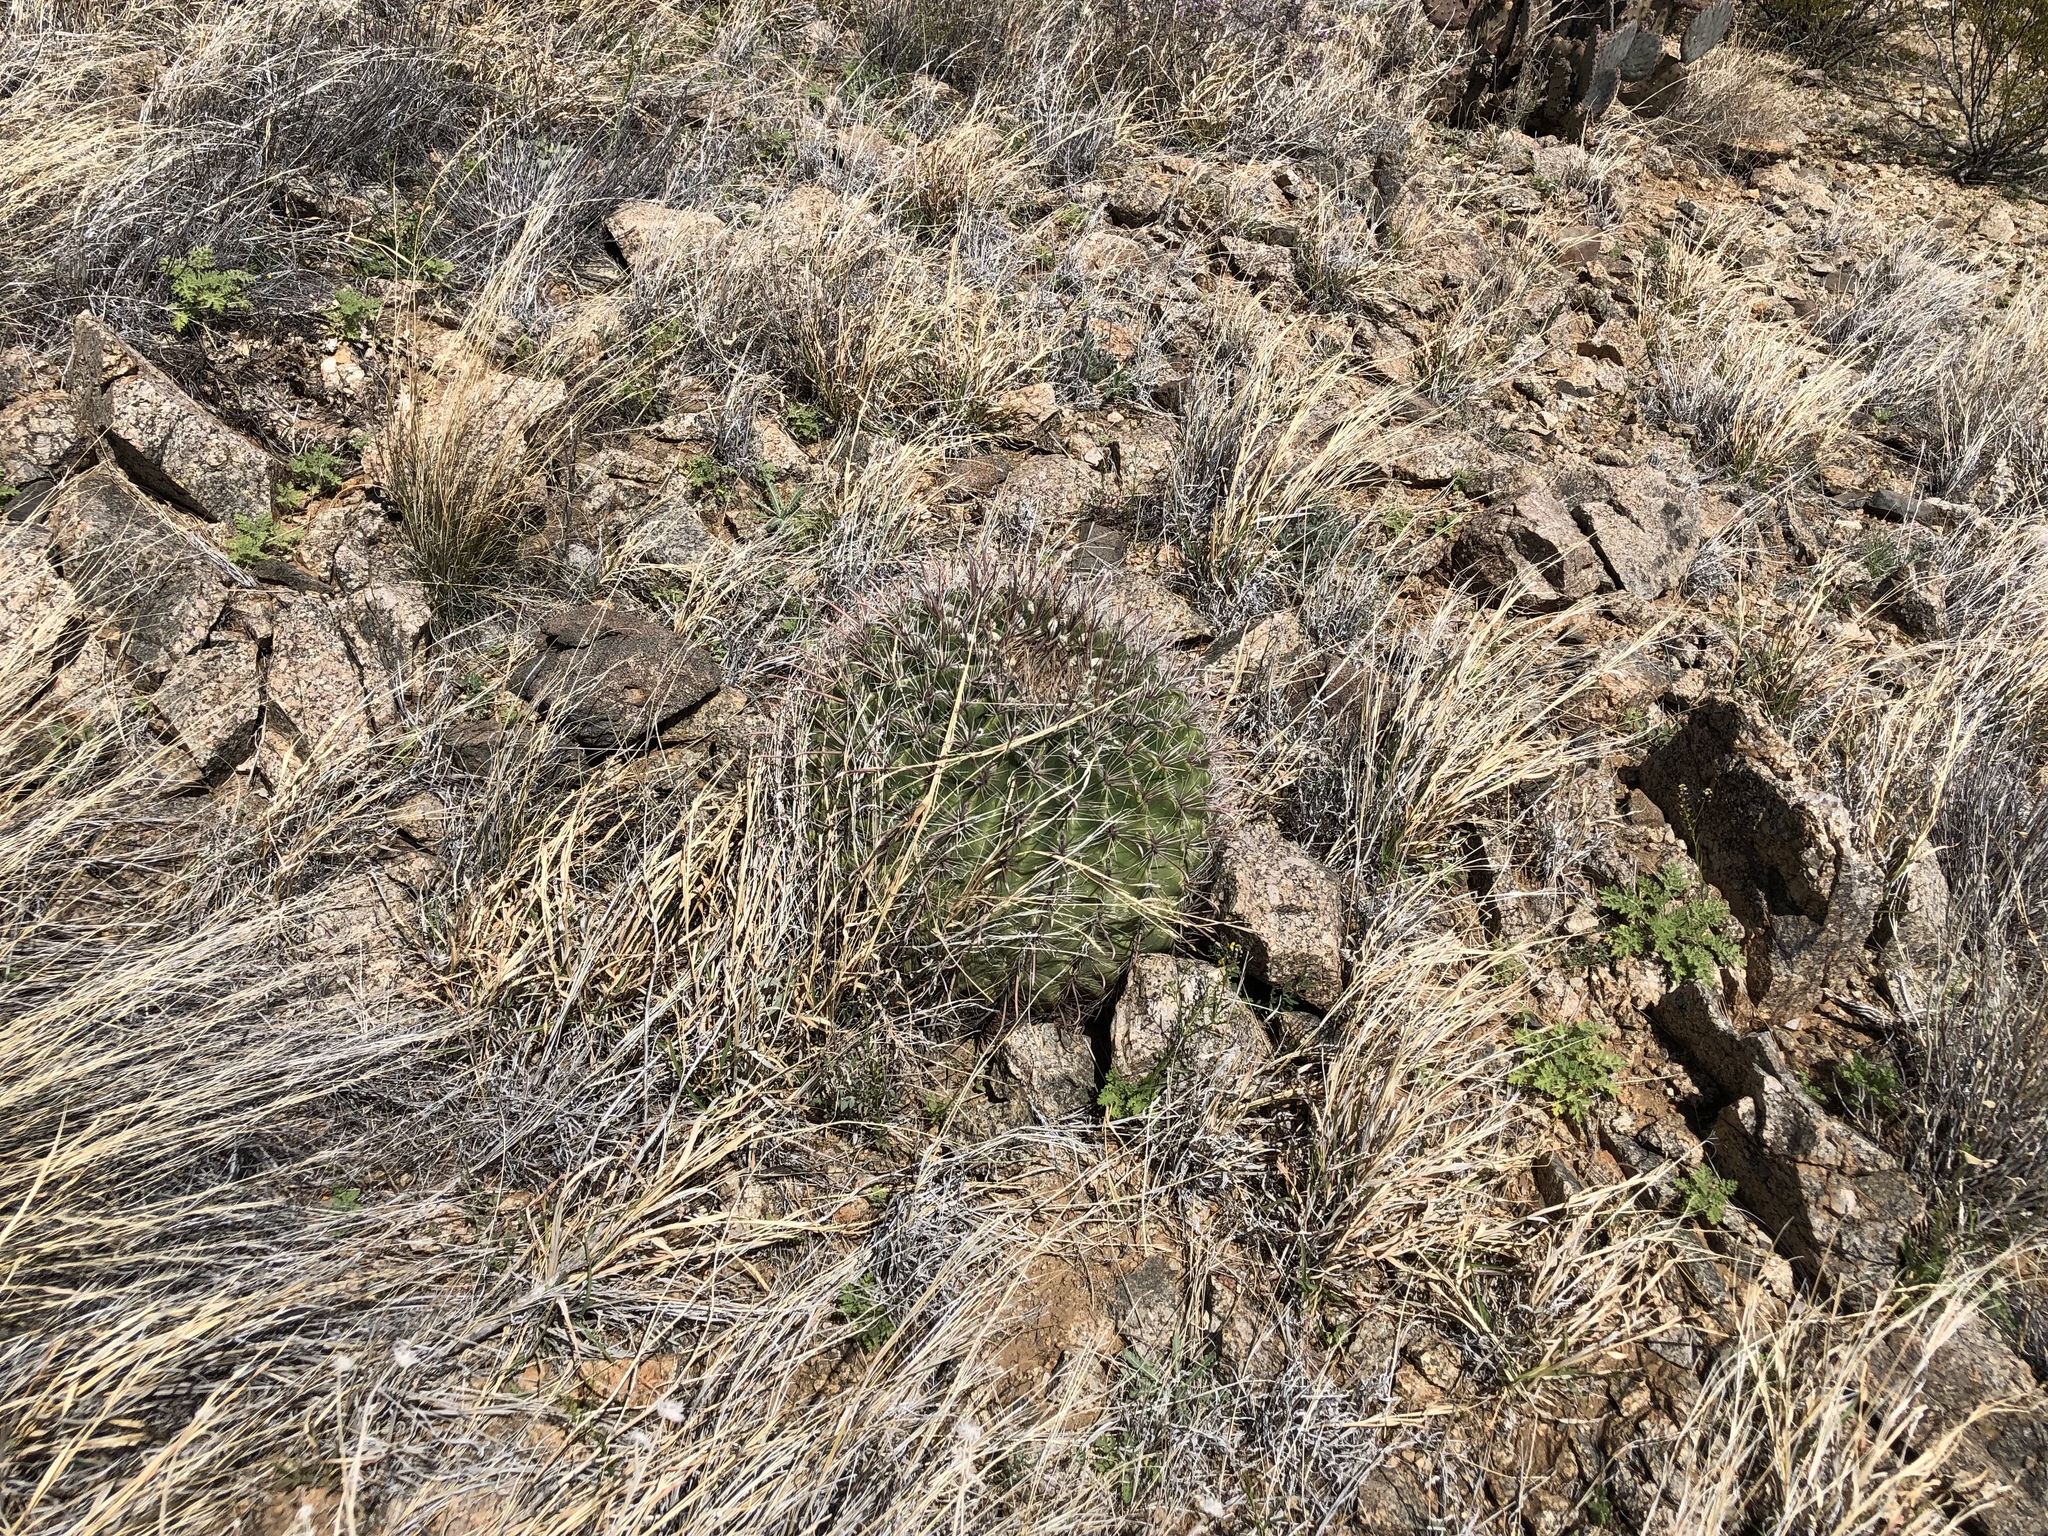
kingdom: Plantae
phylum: Tracheophyta
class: Magnoliopsida
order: Caryophyllales
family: Cactaceae
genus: Ferocactus
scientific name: Ferocactus wislizeni
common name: Candy barrel cactus
